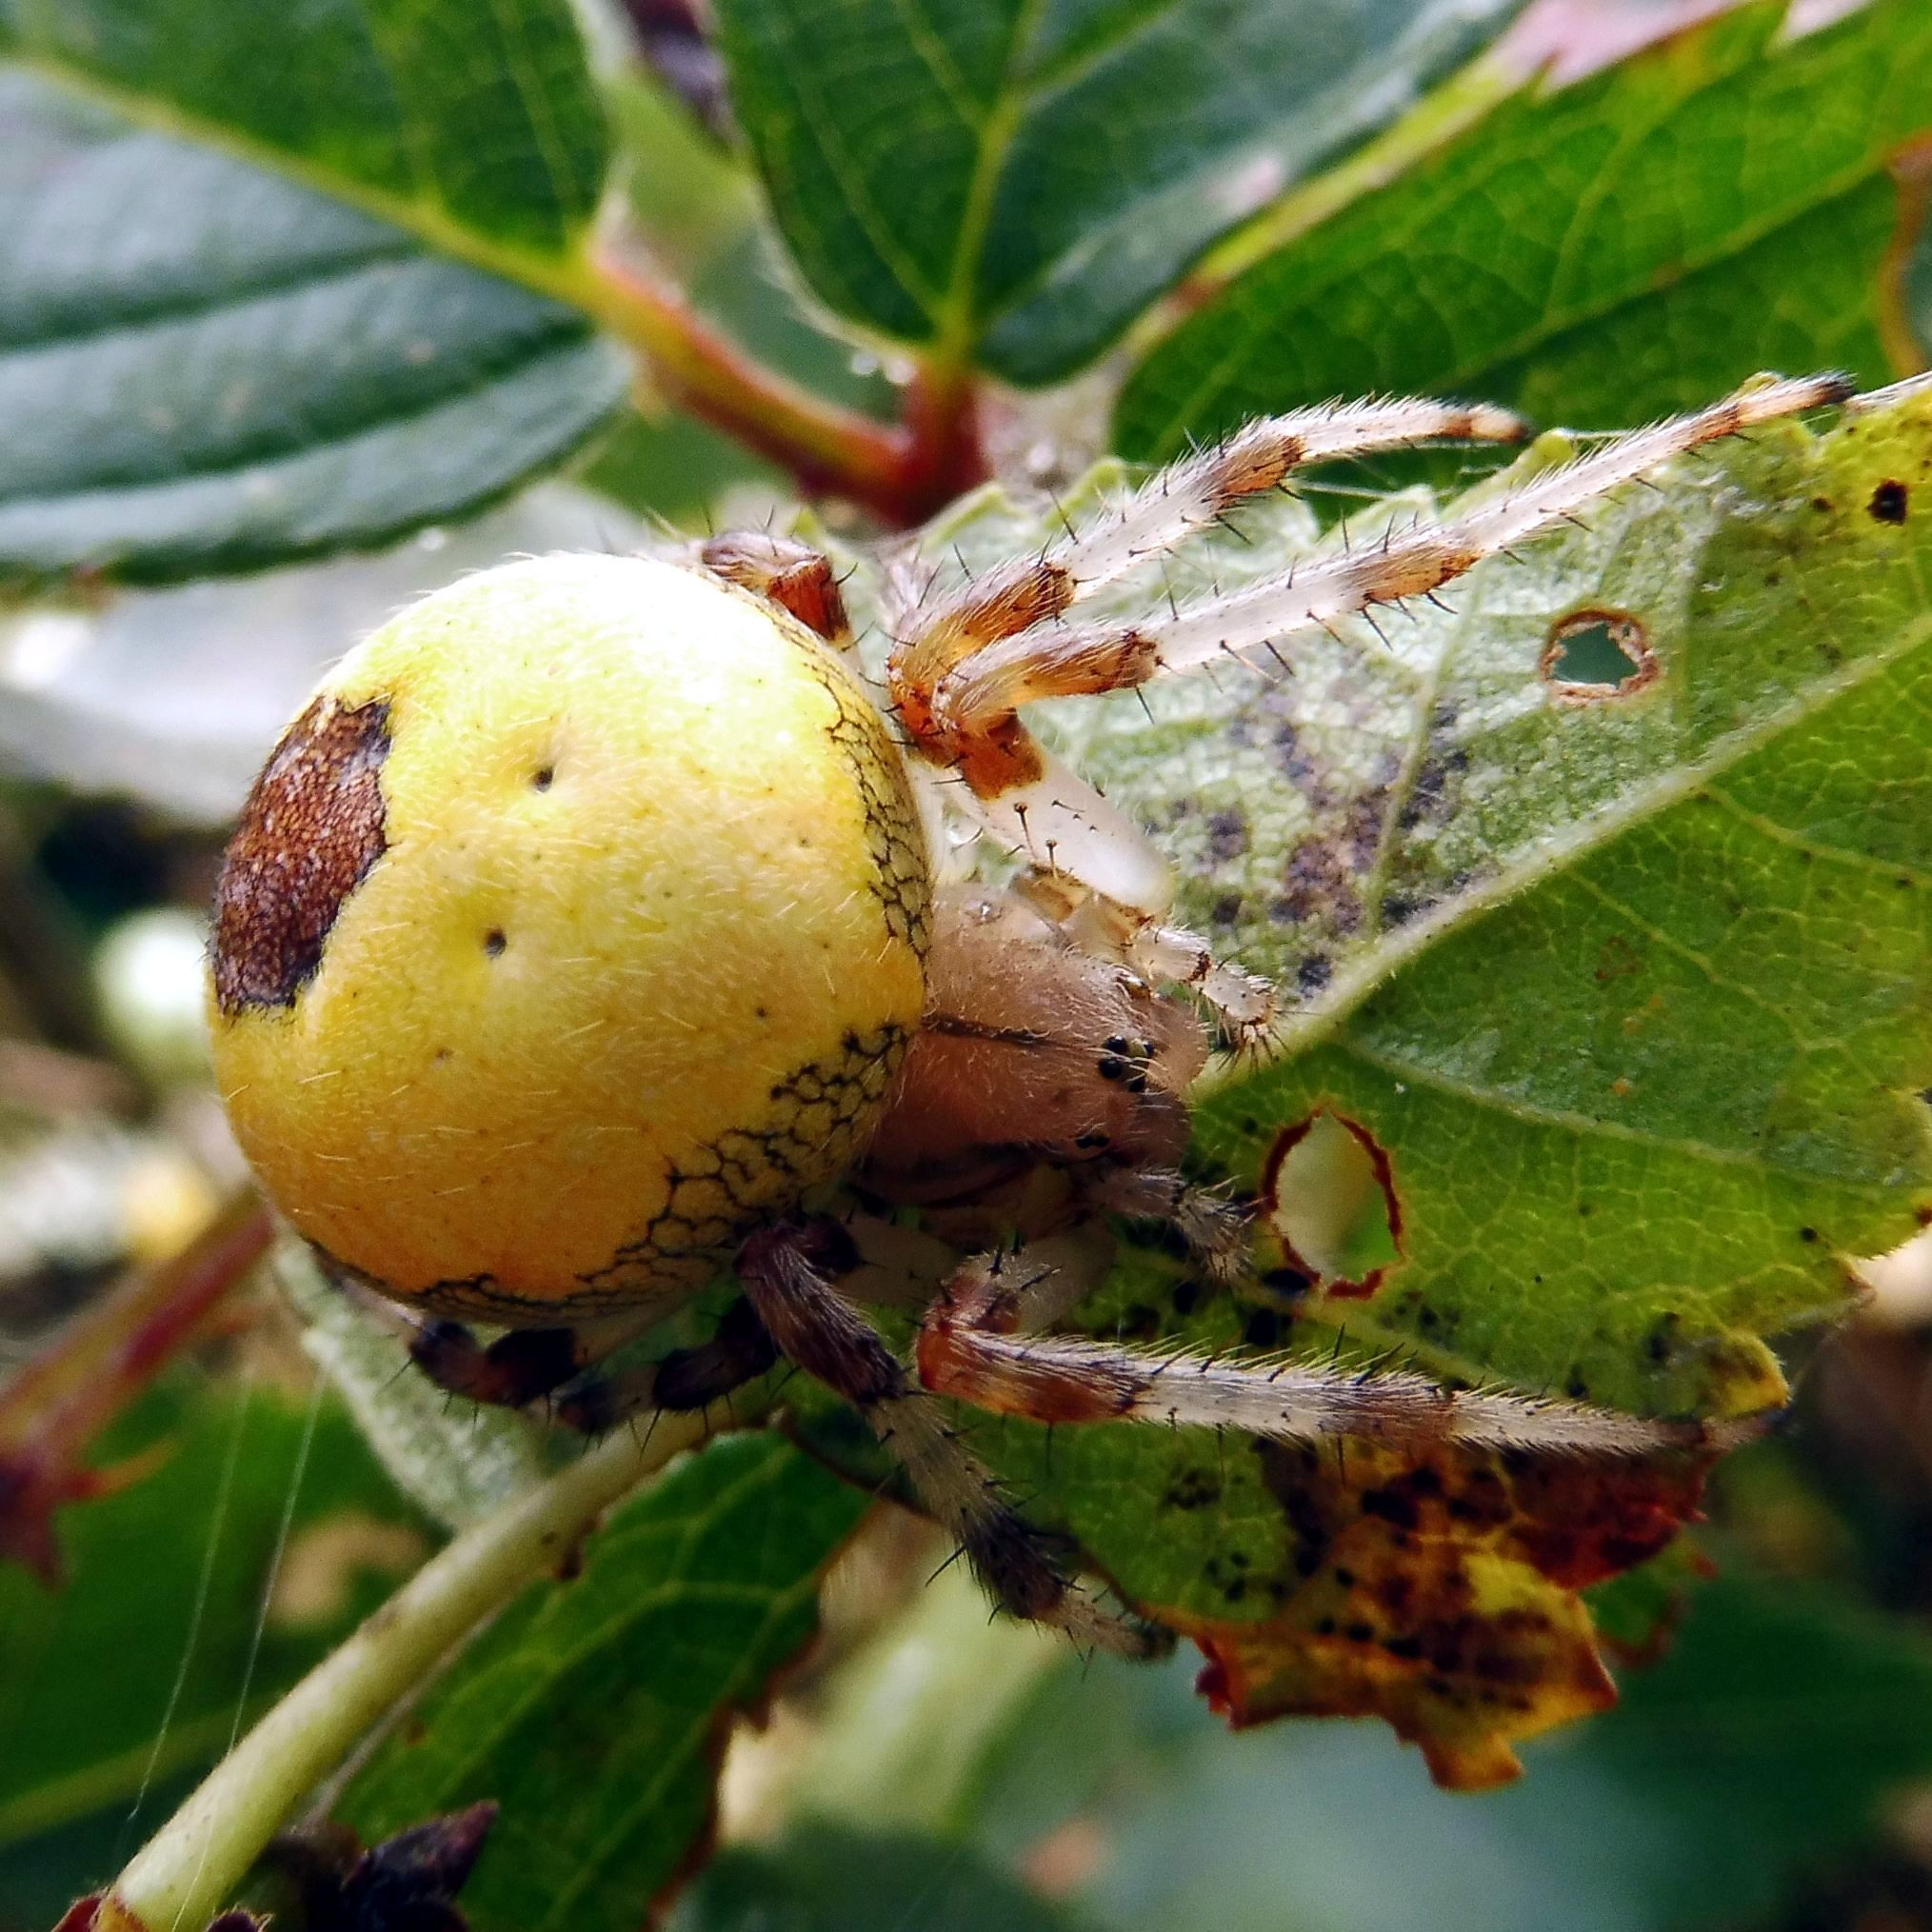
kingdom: Animalia
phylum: Arthropoda
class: Arachnida
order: Araneae
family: Araneidae
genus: Araneus
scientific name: Araneus marmoreus
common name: Marbled orbweaver
